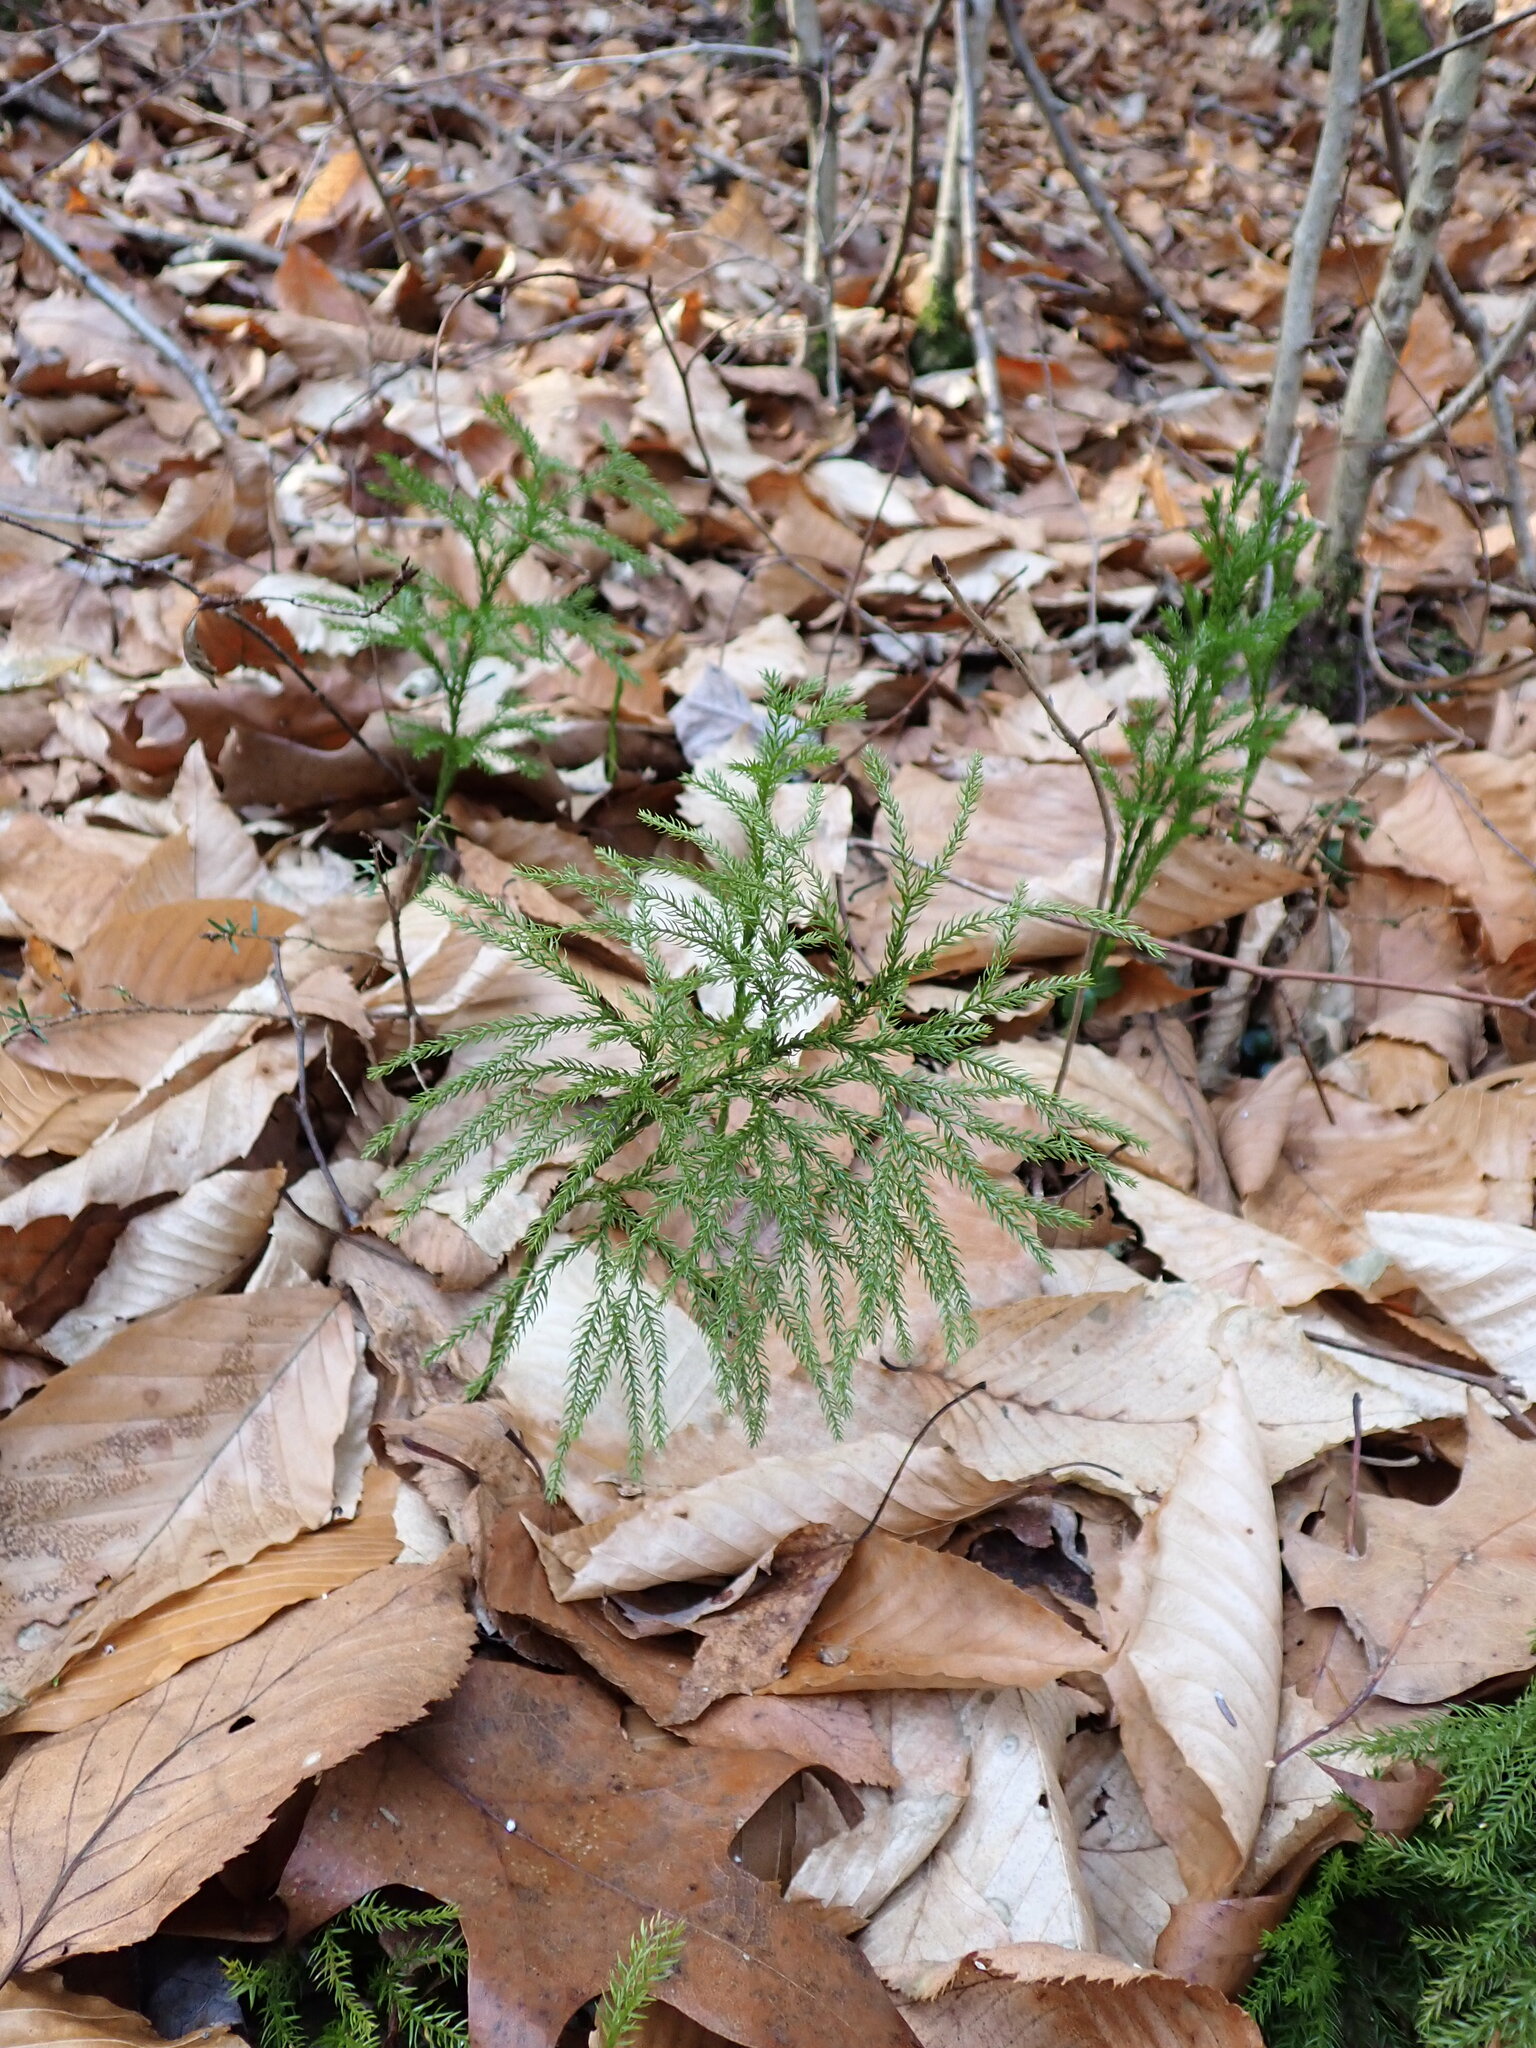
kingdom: Plantae
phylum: Tracheophyta
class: Lycopodiopsida
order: Lycopodiales
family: Lycopodiaceae
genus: Dendrolycopodium
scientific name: Dendrolycopodium obscurum
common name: Common ground-pine
